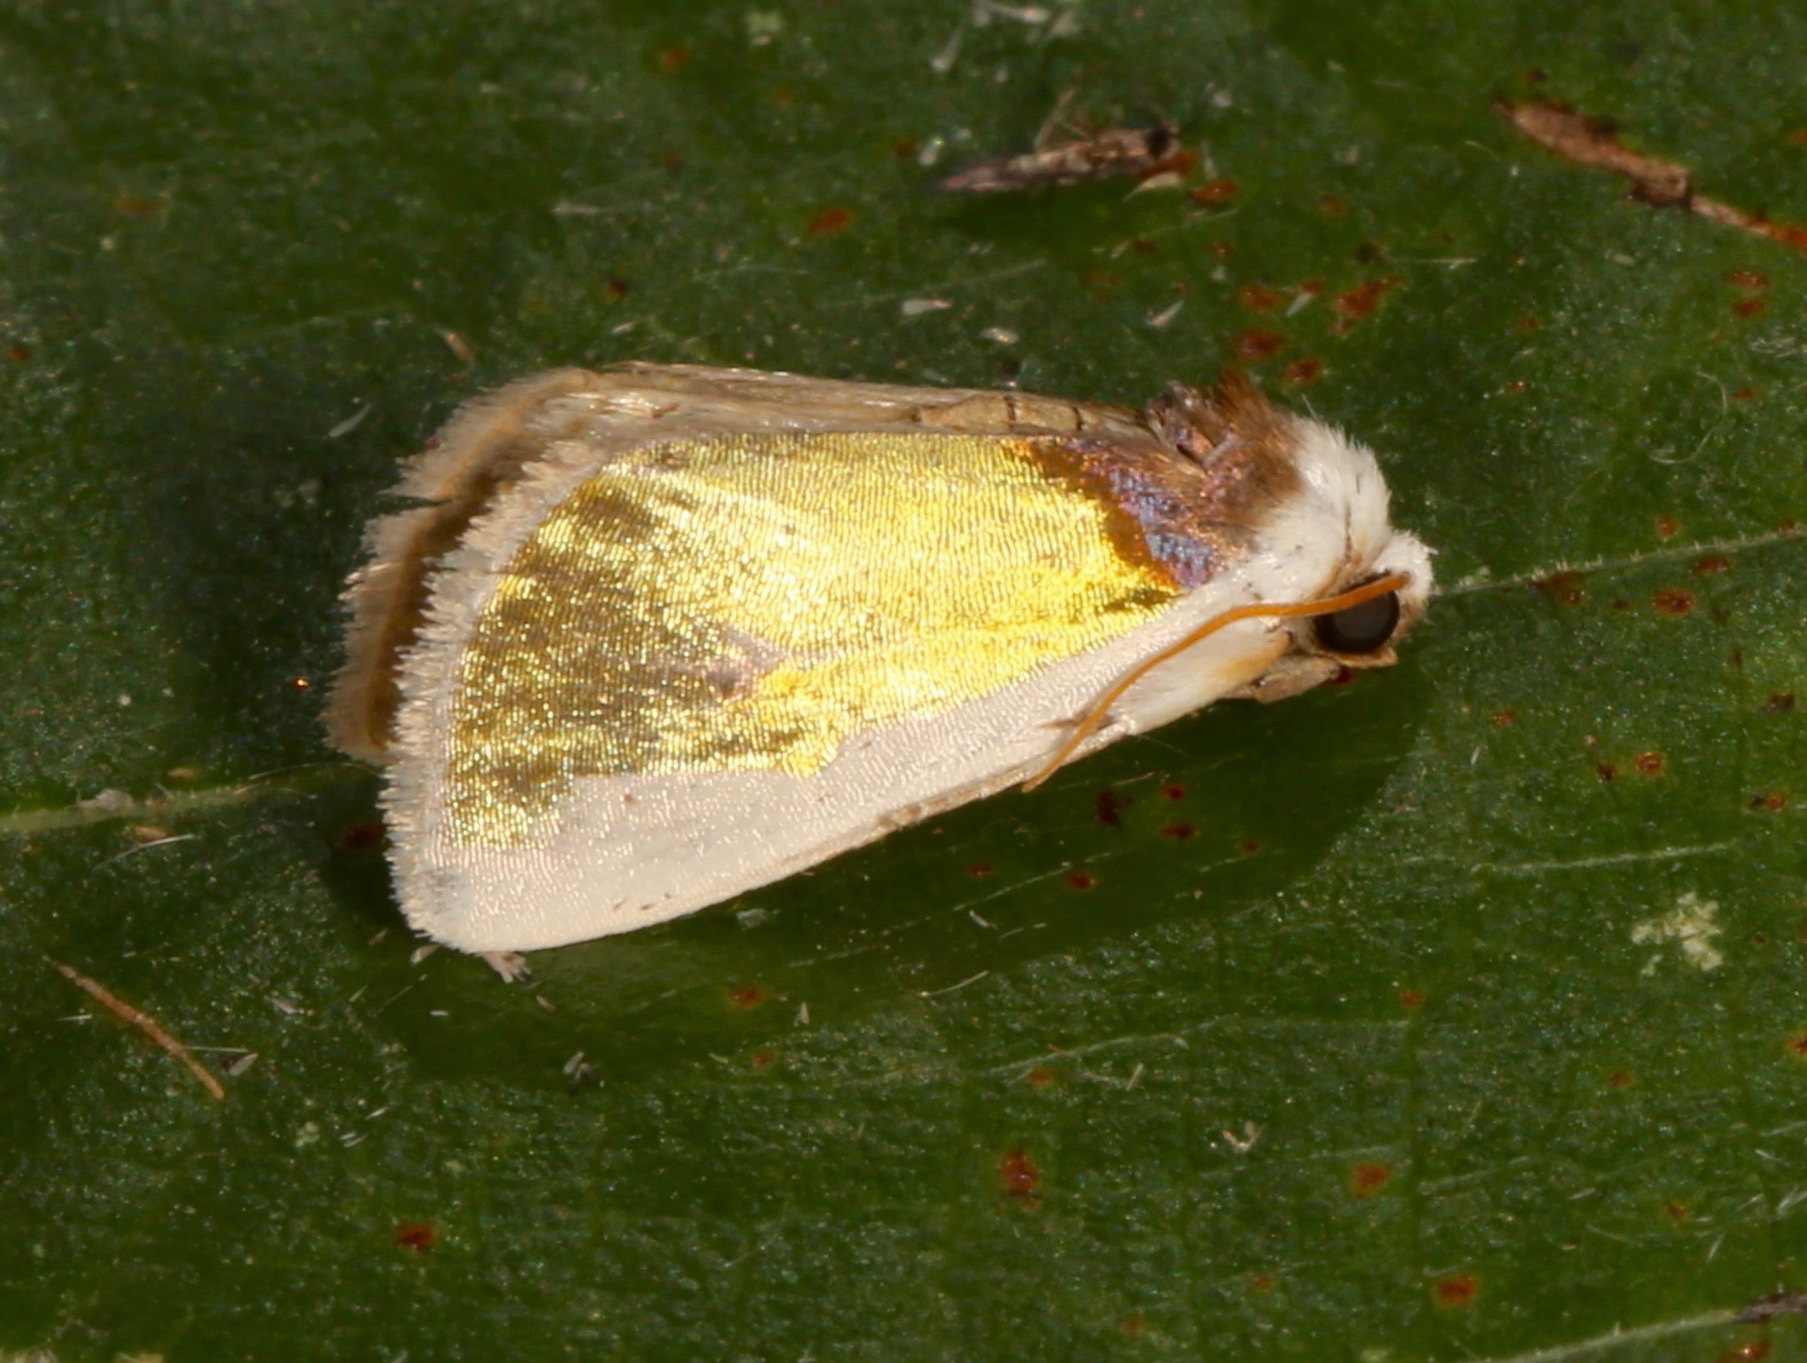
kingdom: Animalia
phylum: Arthropoda
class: Insecta
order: Lepidoptera
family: Noctuidae
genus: Neumoegenia
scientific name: Neumoegenia poetica
